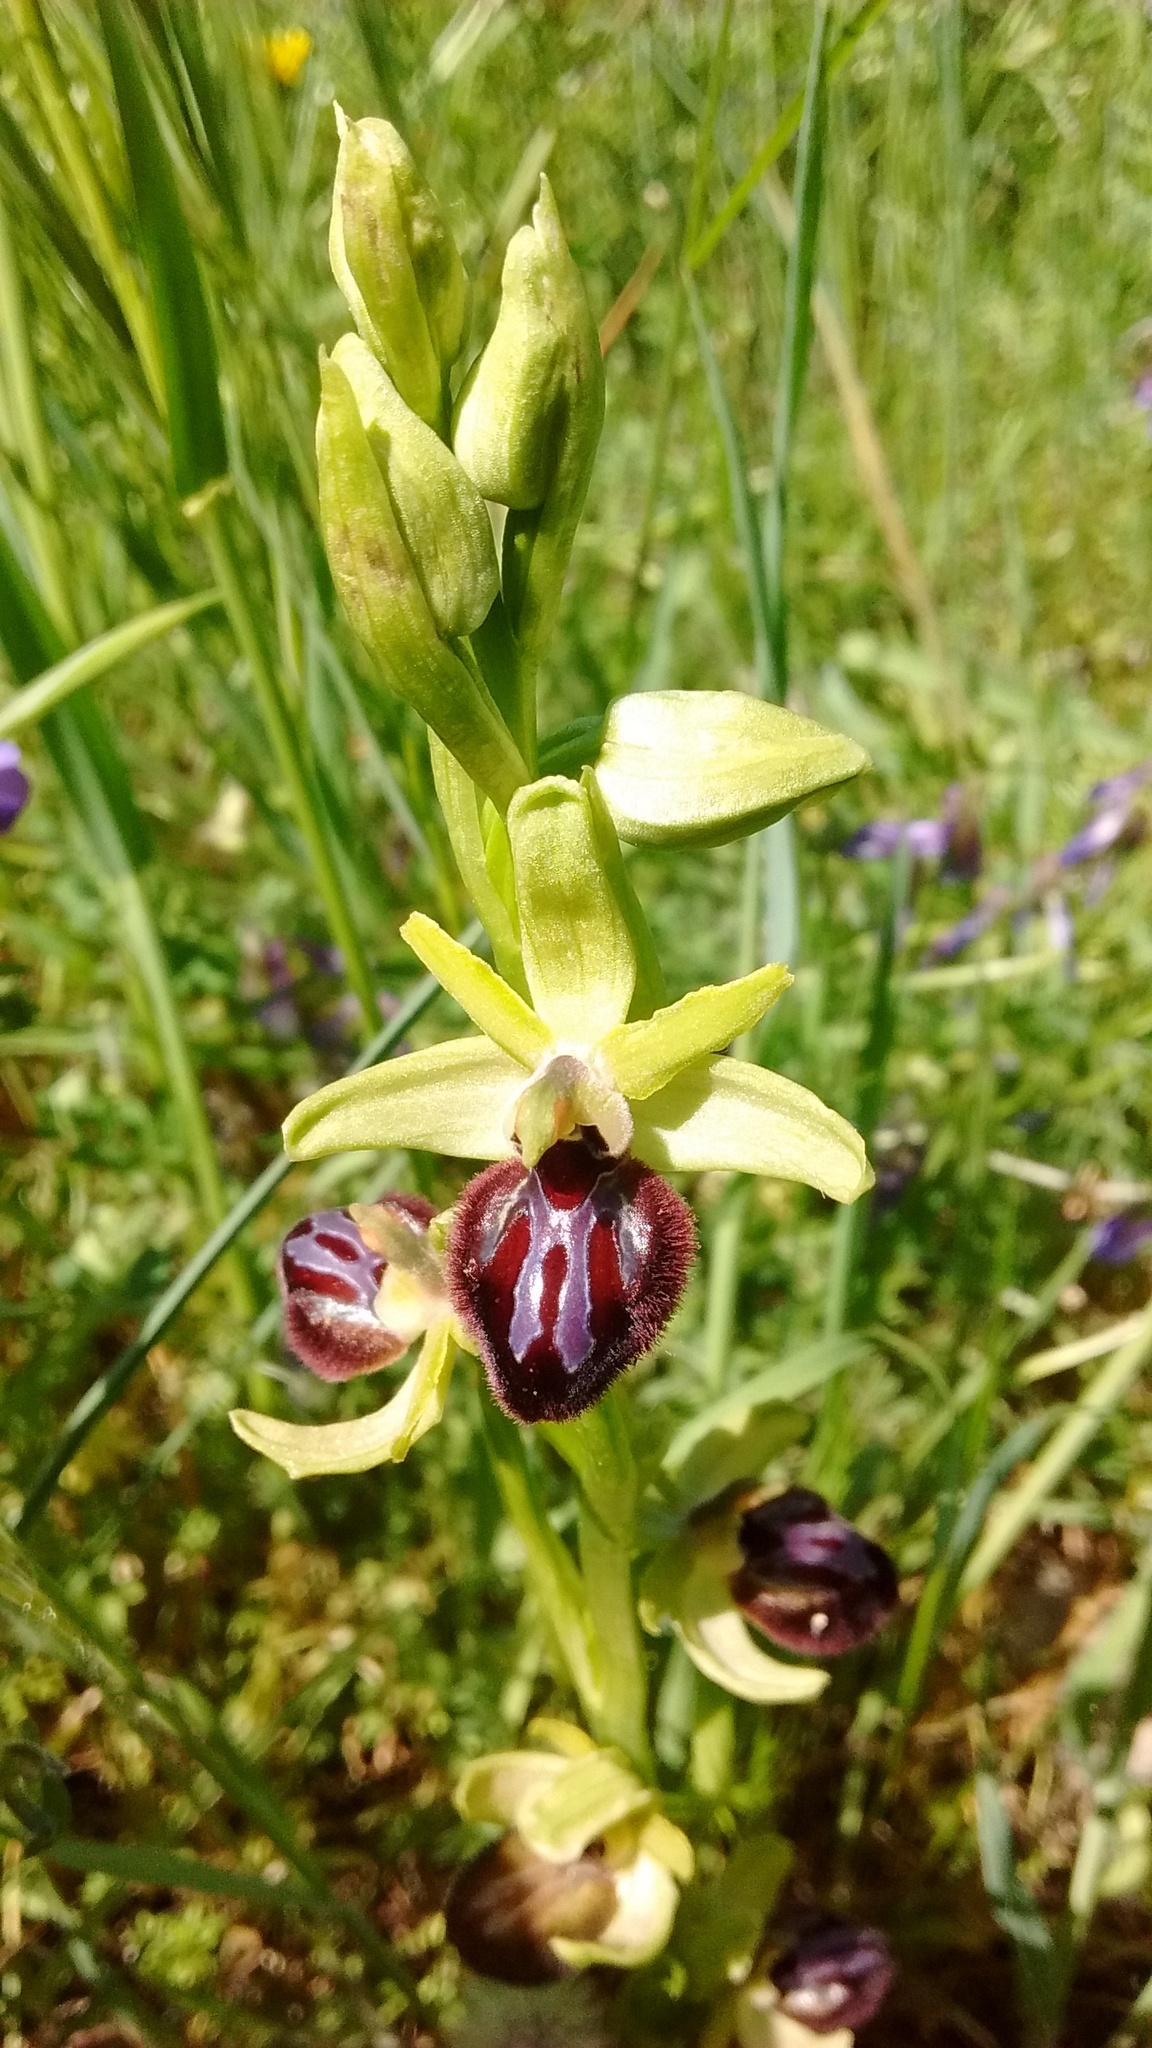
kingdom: Plantae
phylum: Tracheophyta
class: Liliopsida
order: Asparagales
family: Orchidaceae
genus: Ophrys
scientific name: Ophrys sphegodes
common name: Early spider-orchid
